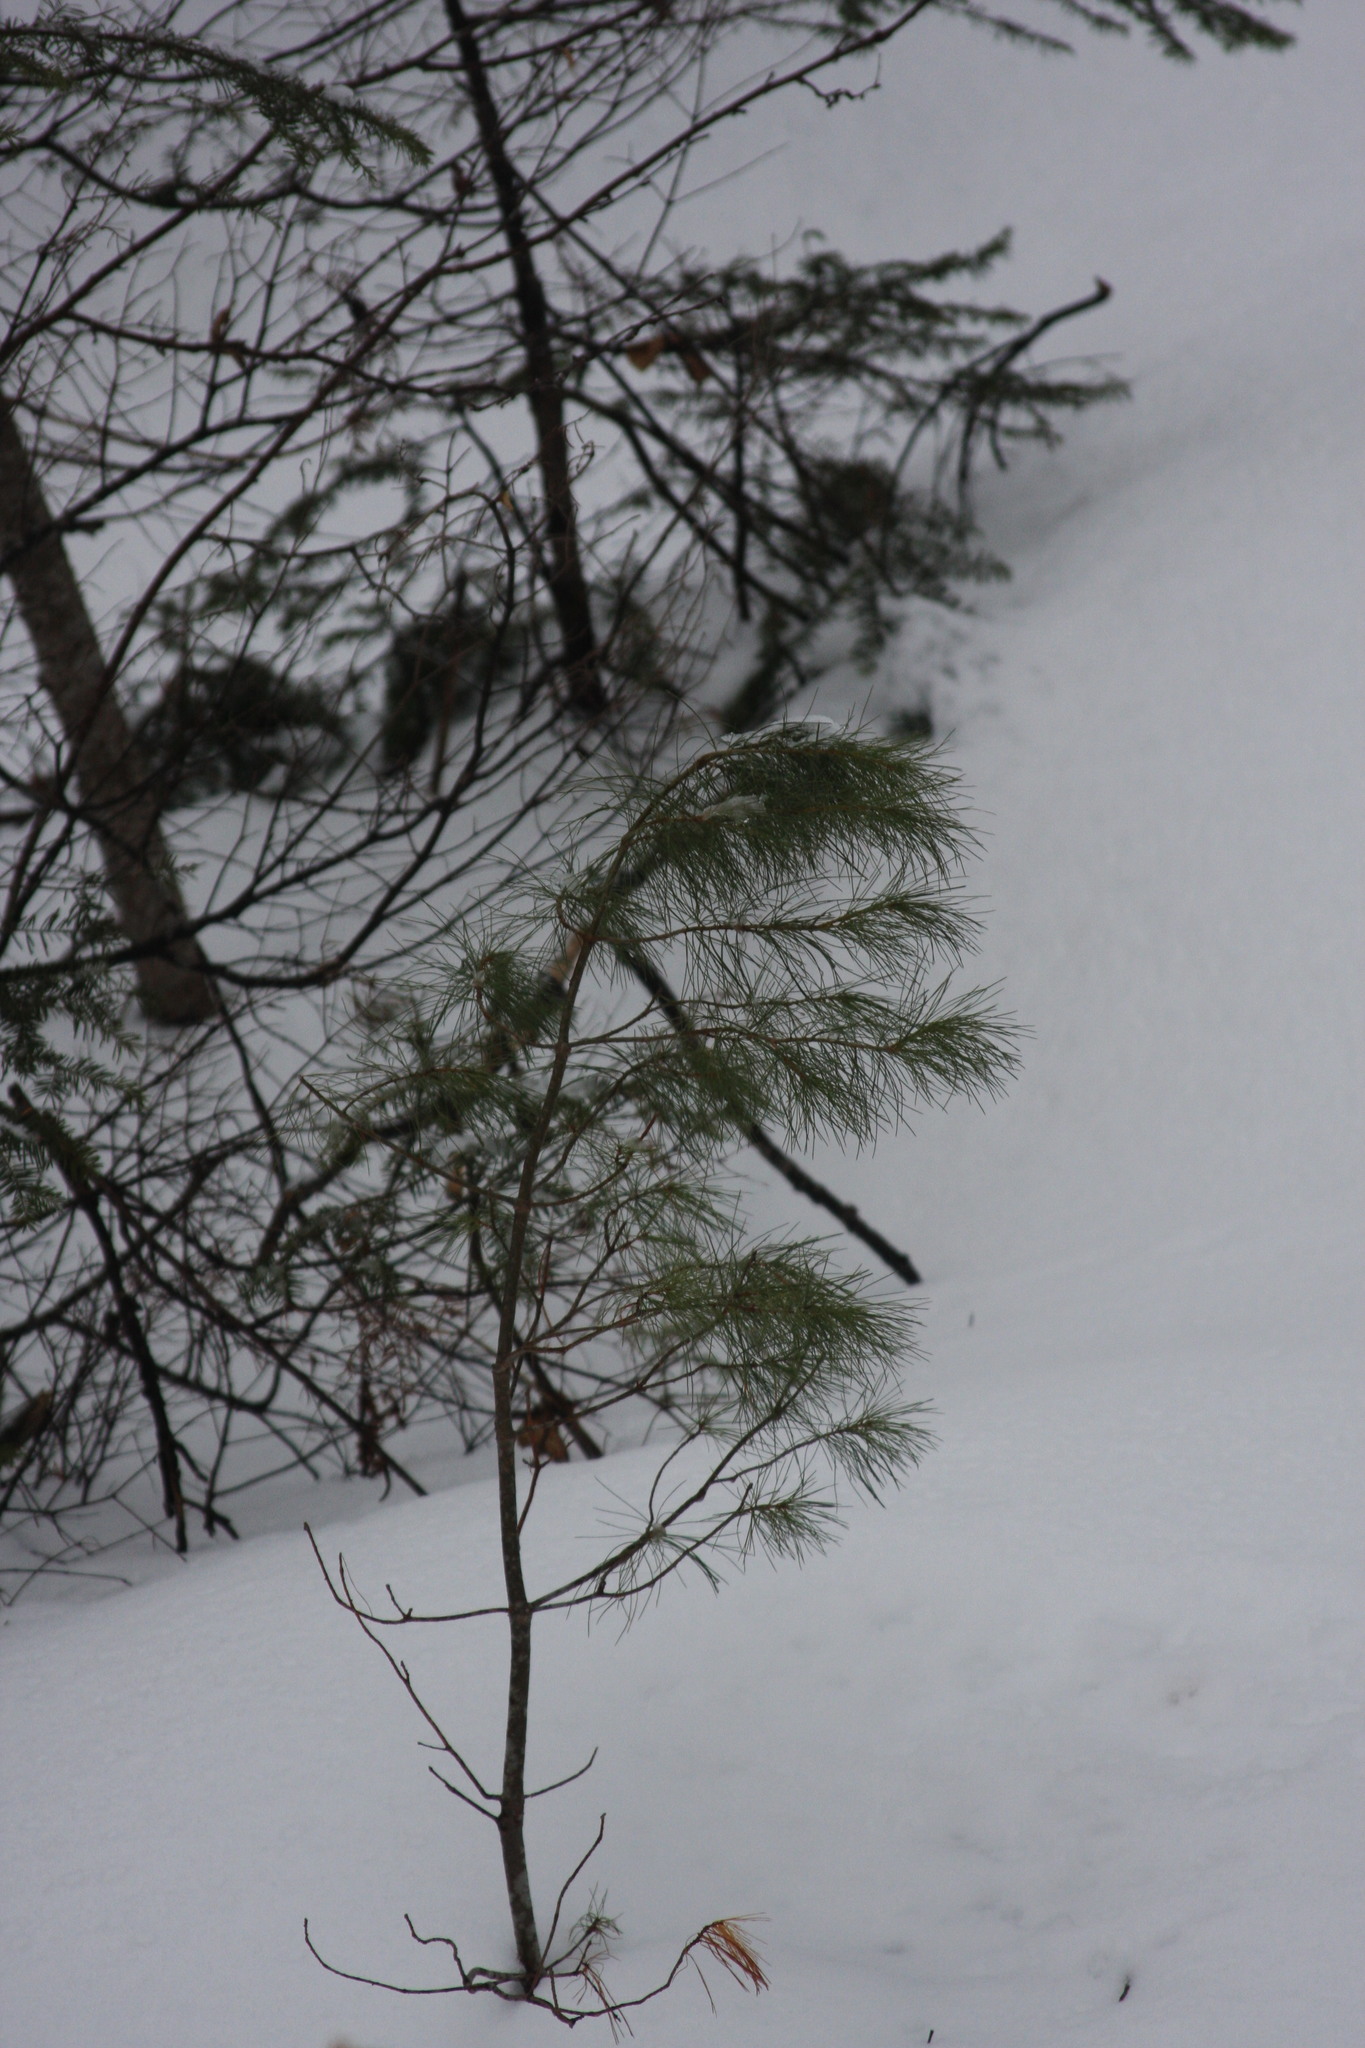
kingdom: Plantae
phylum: Tracheophyta
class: Pinopsida
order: Pinales
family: Pinaceae
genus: Pinus
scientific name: Pinus strobus
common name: Weymouth pine
